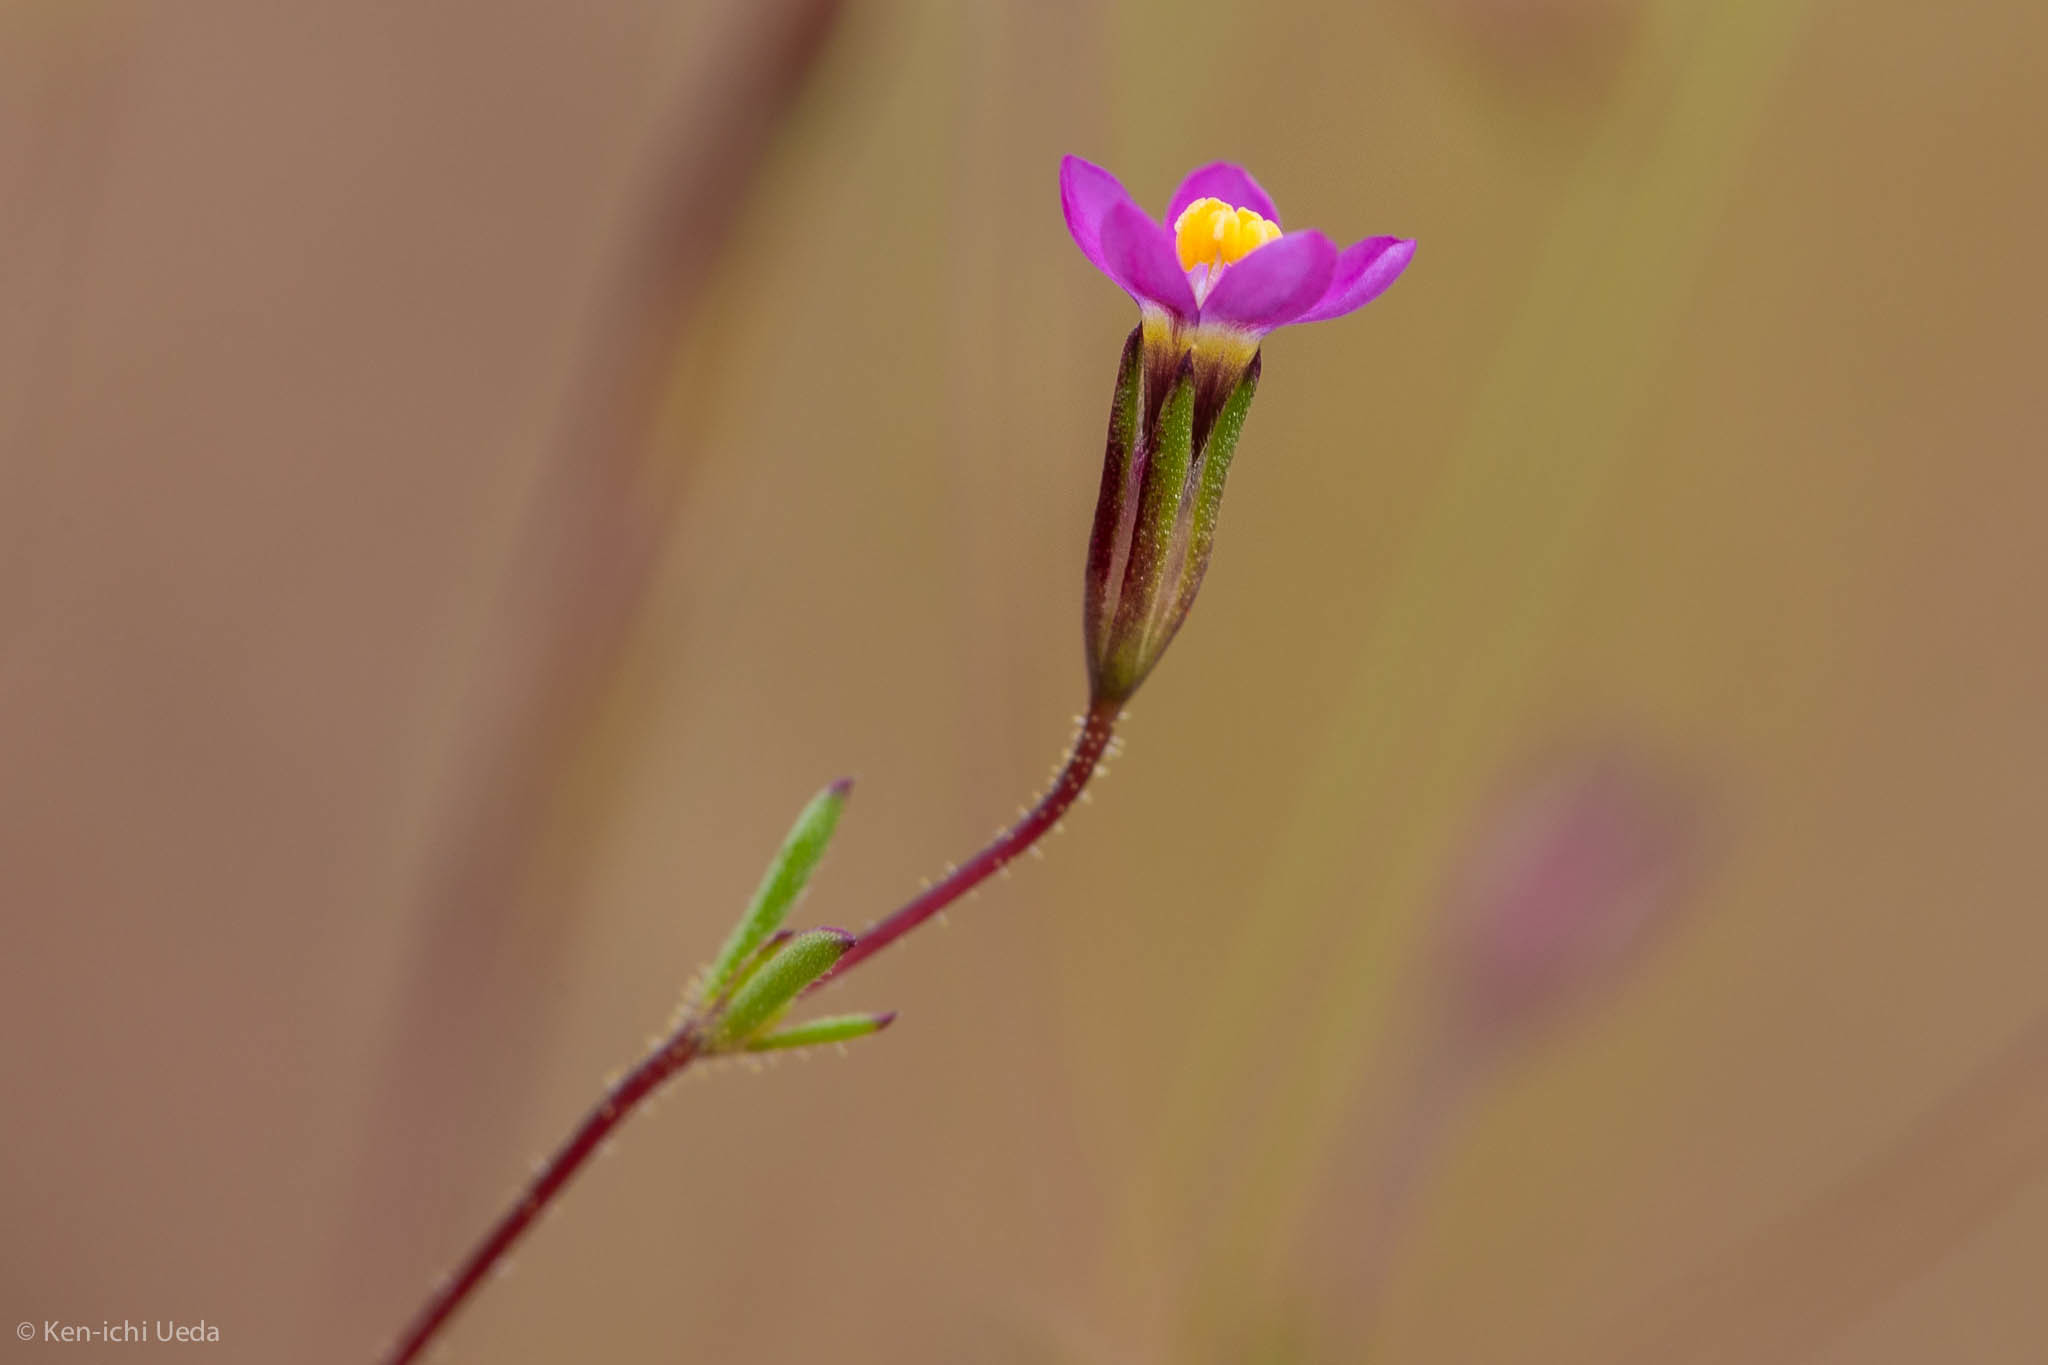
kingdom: Plantae
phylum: Tracheophyta
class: Magnoliopsida
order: Ericales
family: Polemoniaceae
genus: Leptosiphon
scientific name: Leptosiphon bolanderi
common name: Bolander's linanthus
